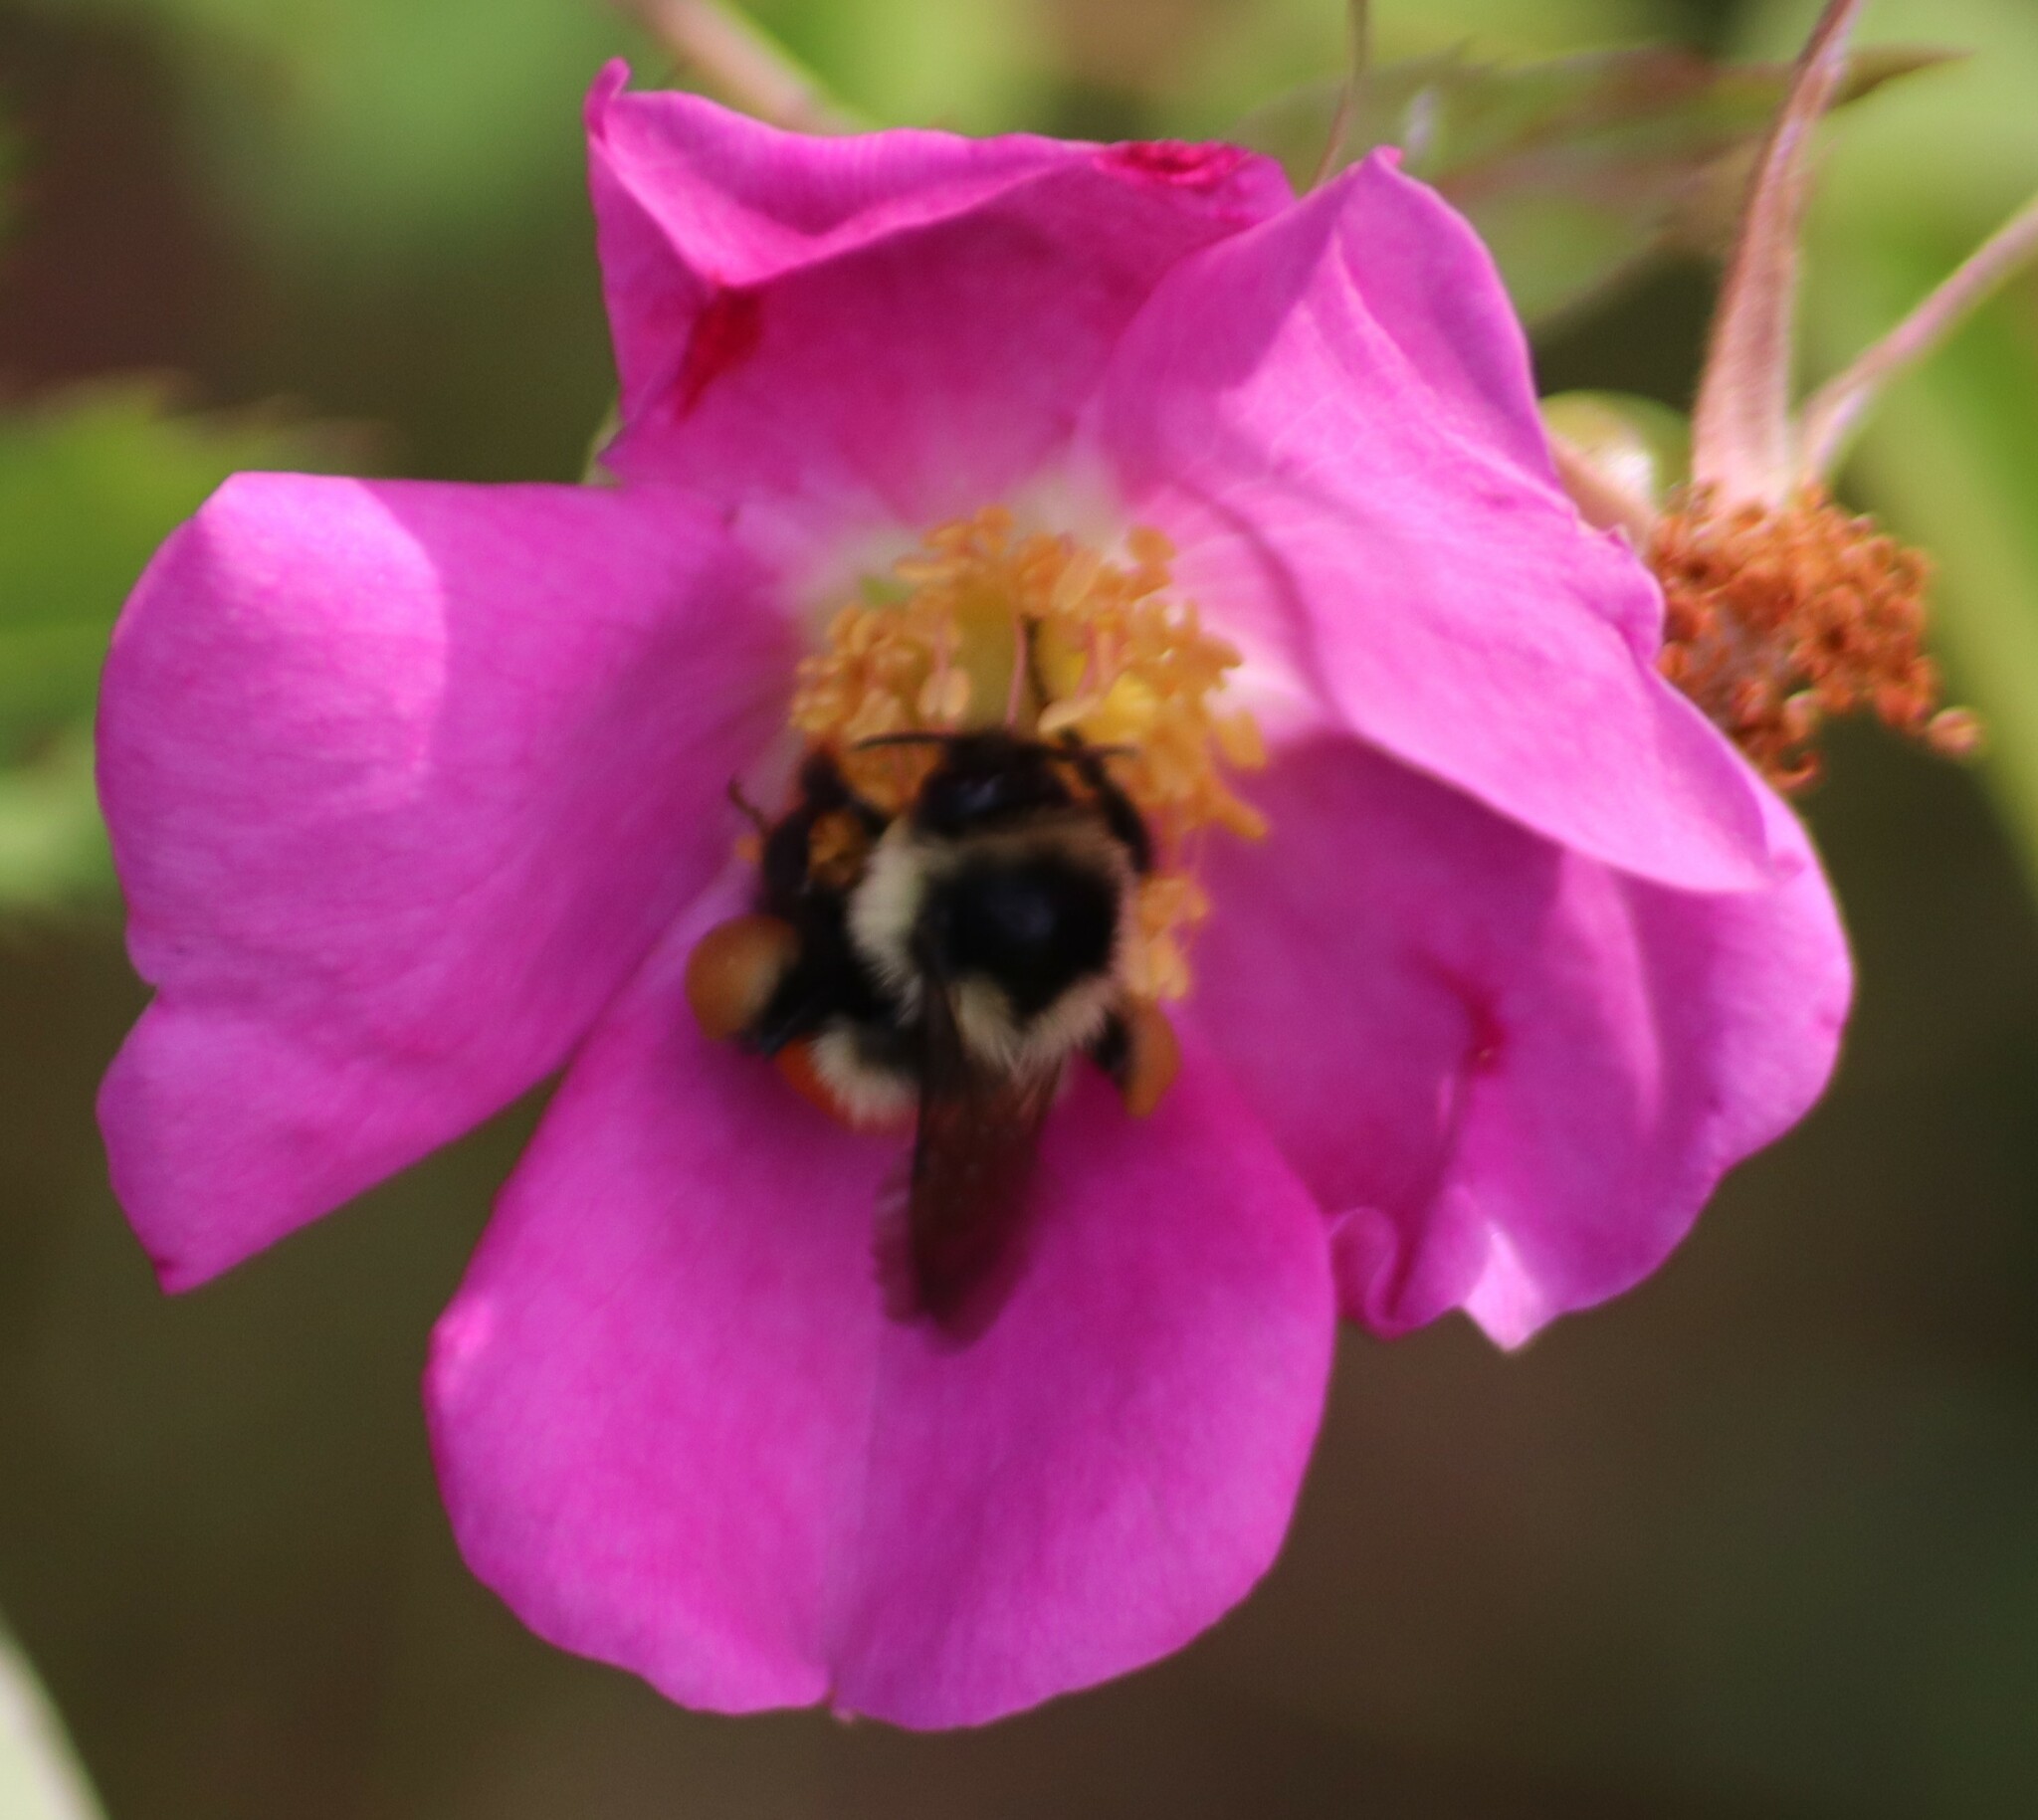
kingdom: Animalia
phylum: Arthropoda
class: Insecta
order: Hymenoptera
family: Apidae
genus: Bombus
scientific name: Bombus ternarius
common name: Tri-colored bumble bee
